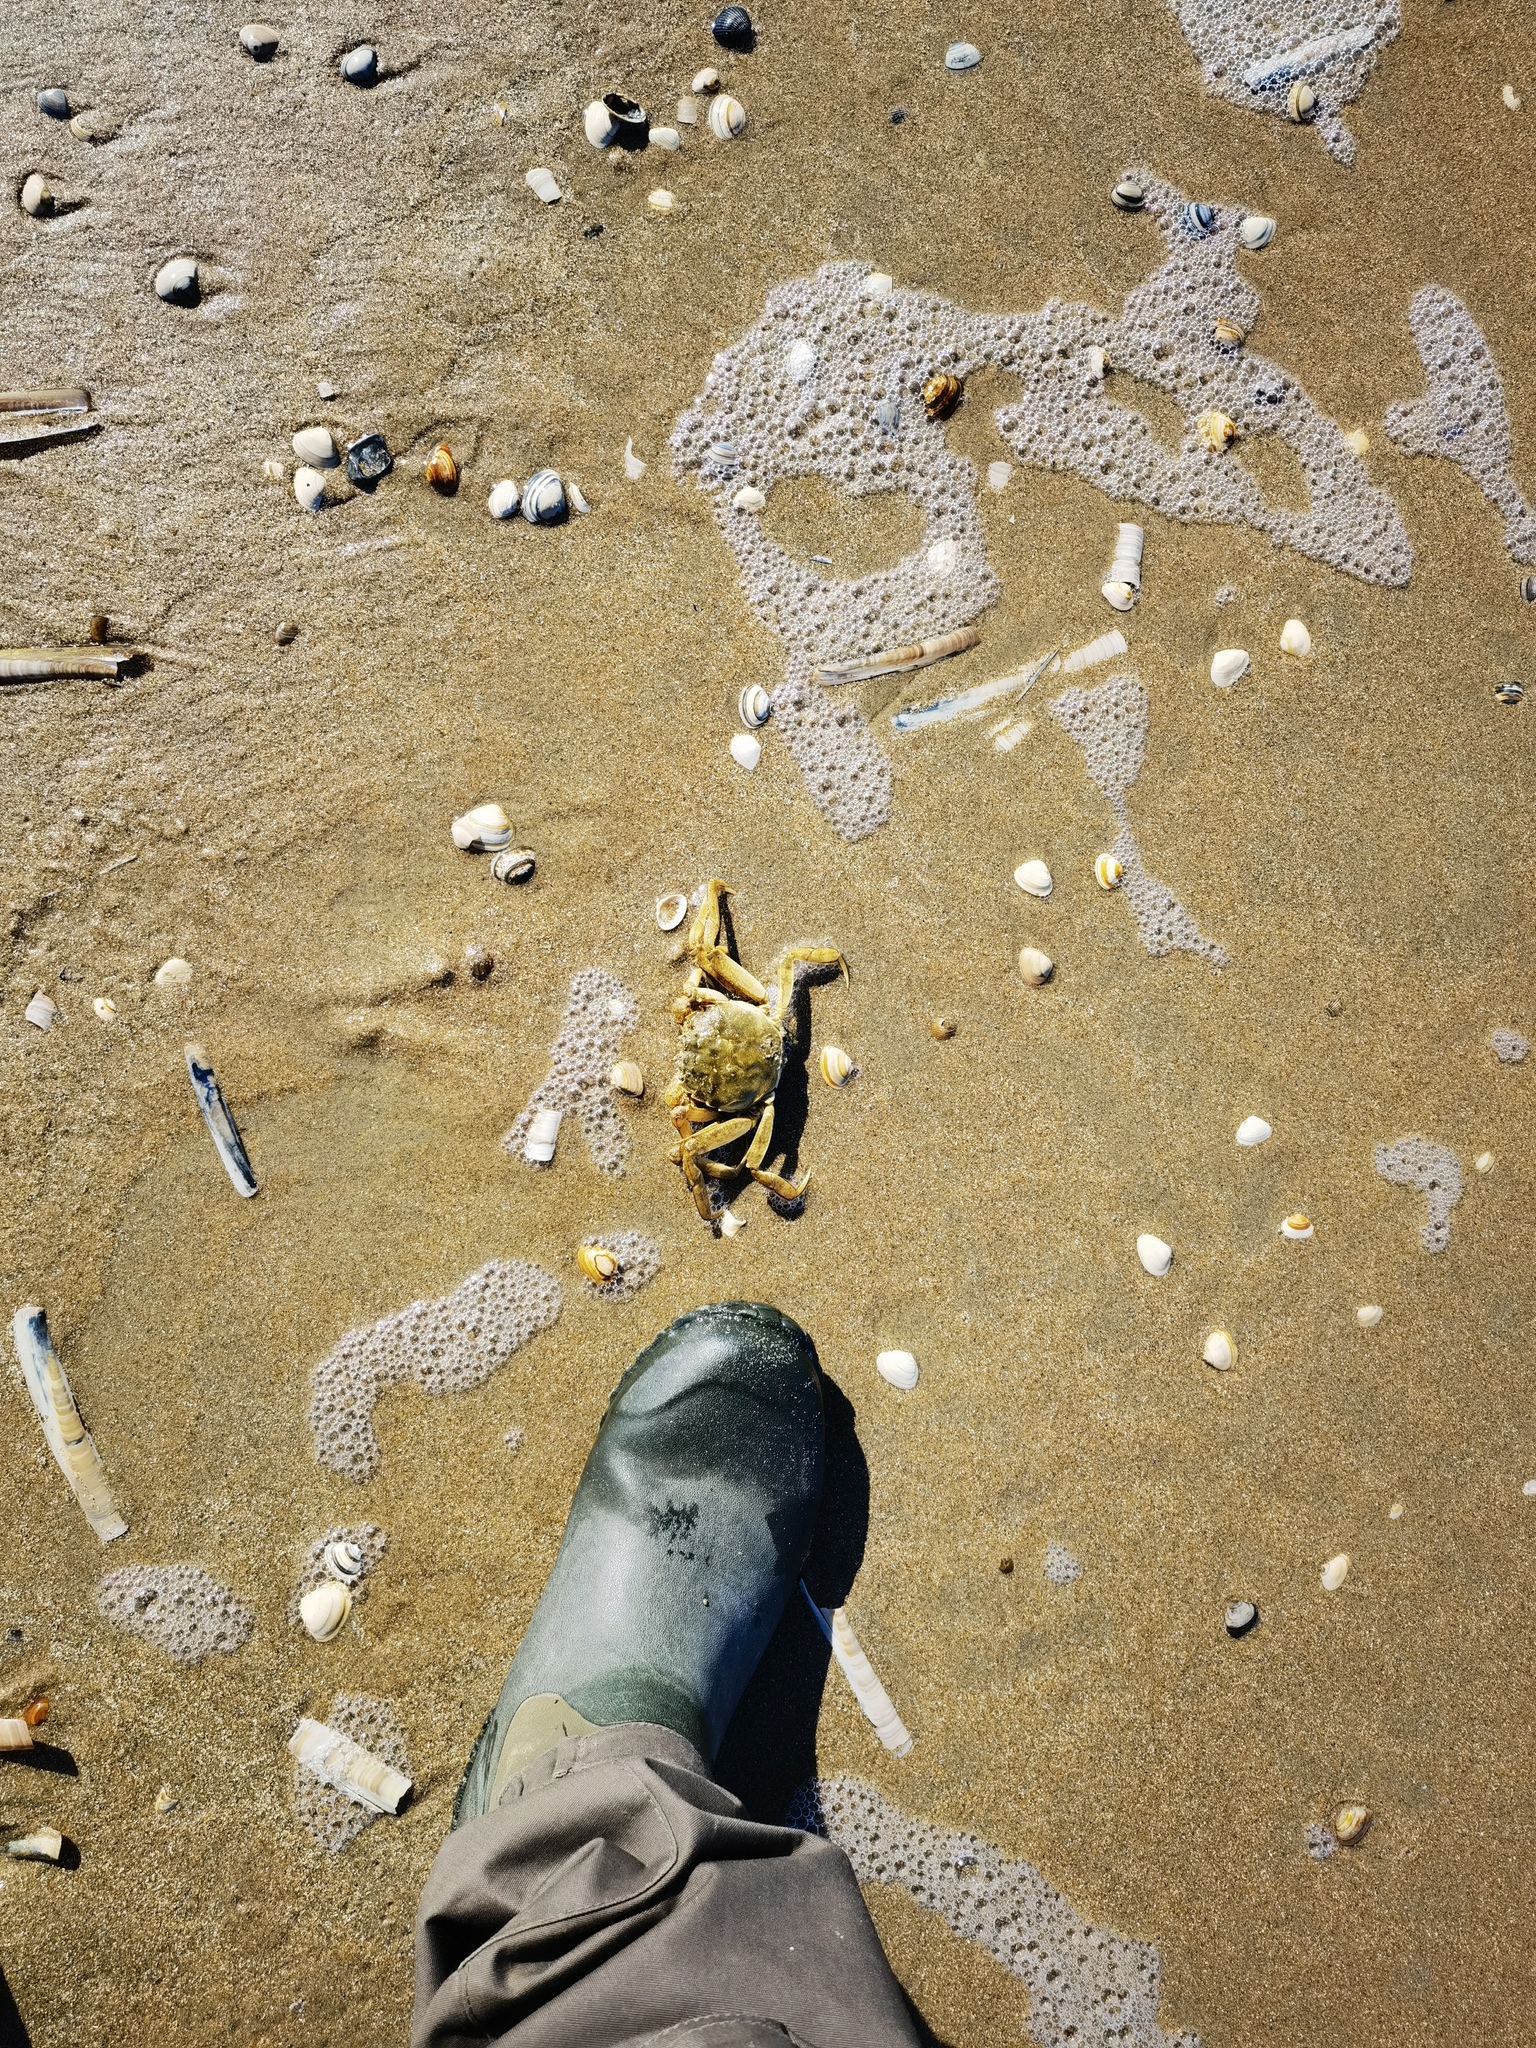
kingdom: Animalia
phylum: Arthropoda
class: Malacostraca
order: Decapoda
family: Varunidae
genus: Eriocheir
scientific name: Eriocheir sinensis
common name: Chinese mitten crab
